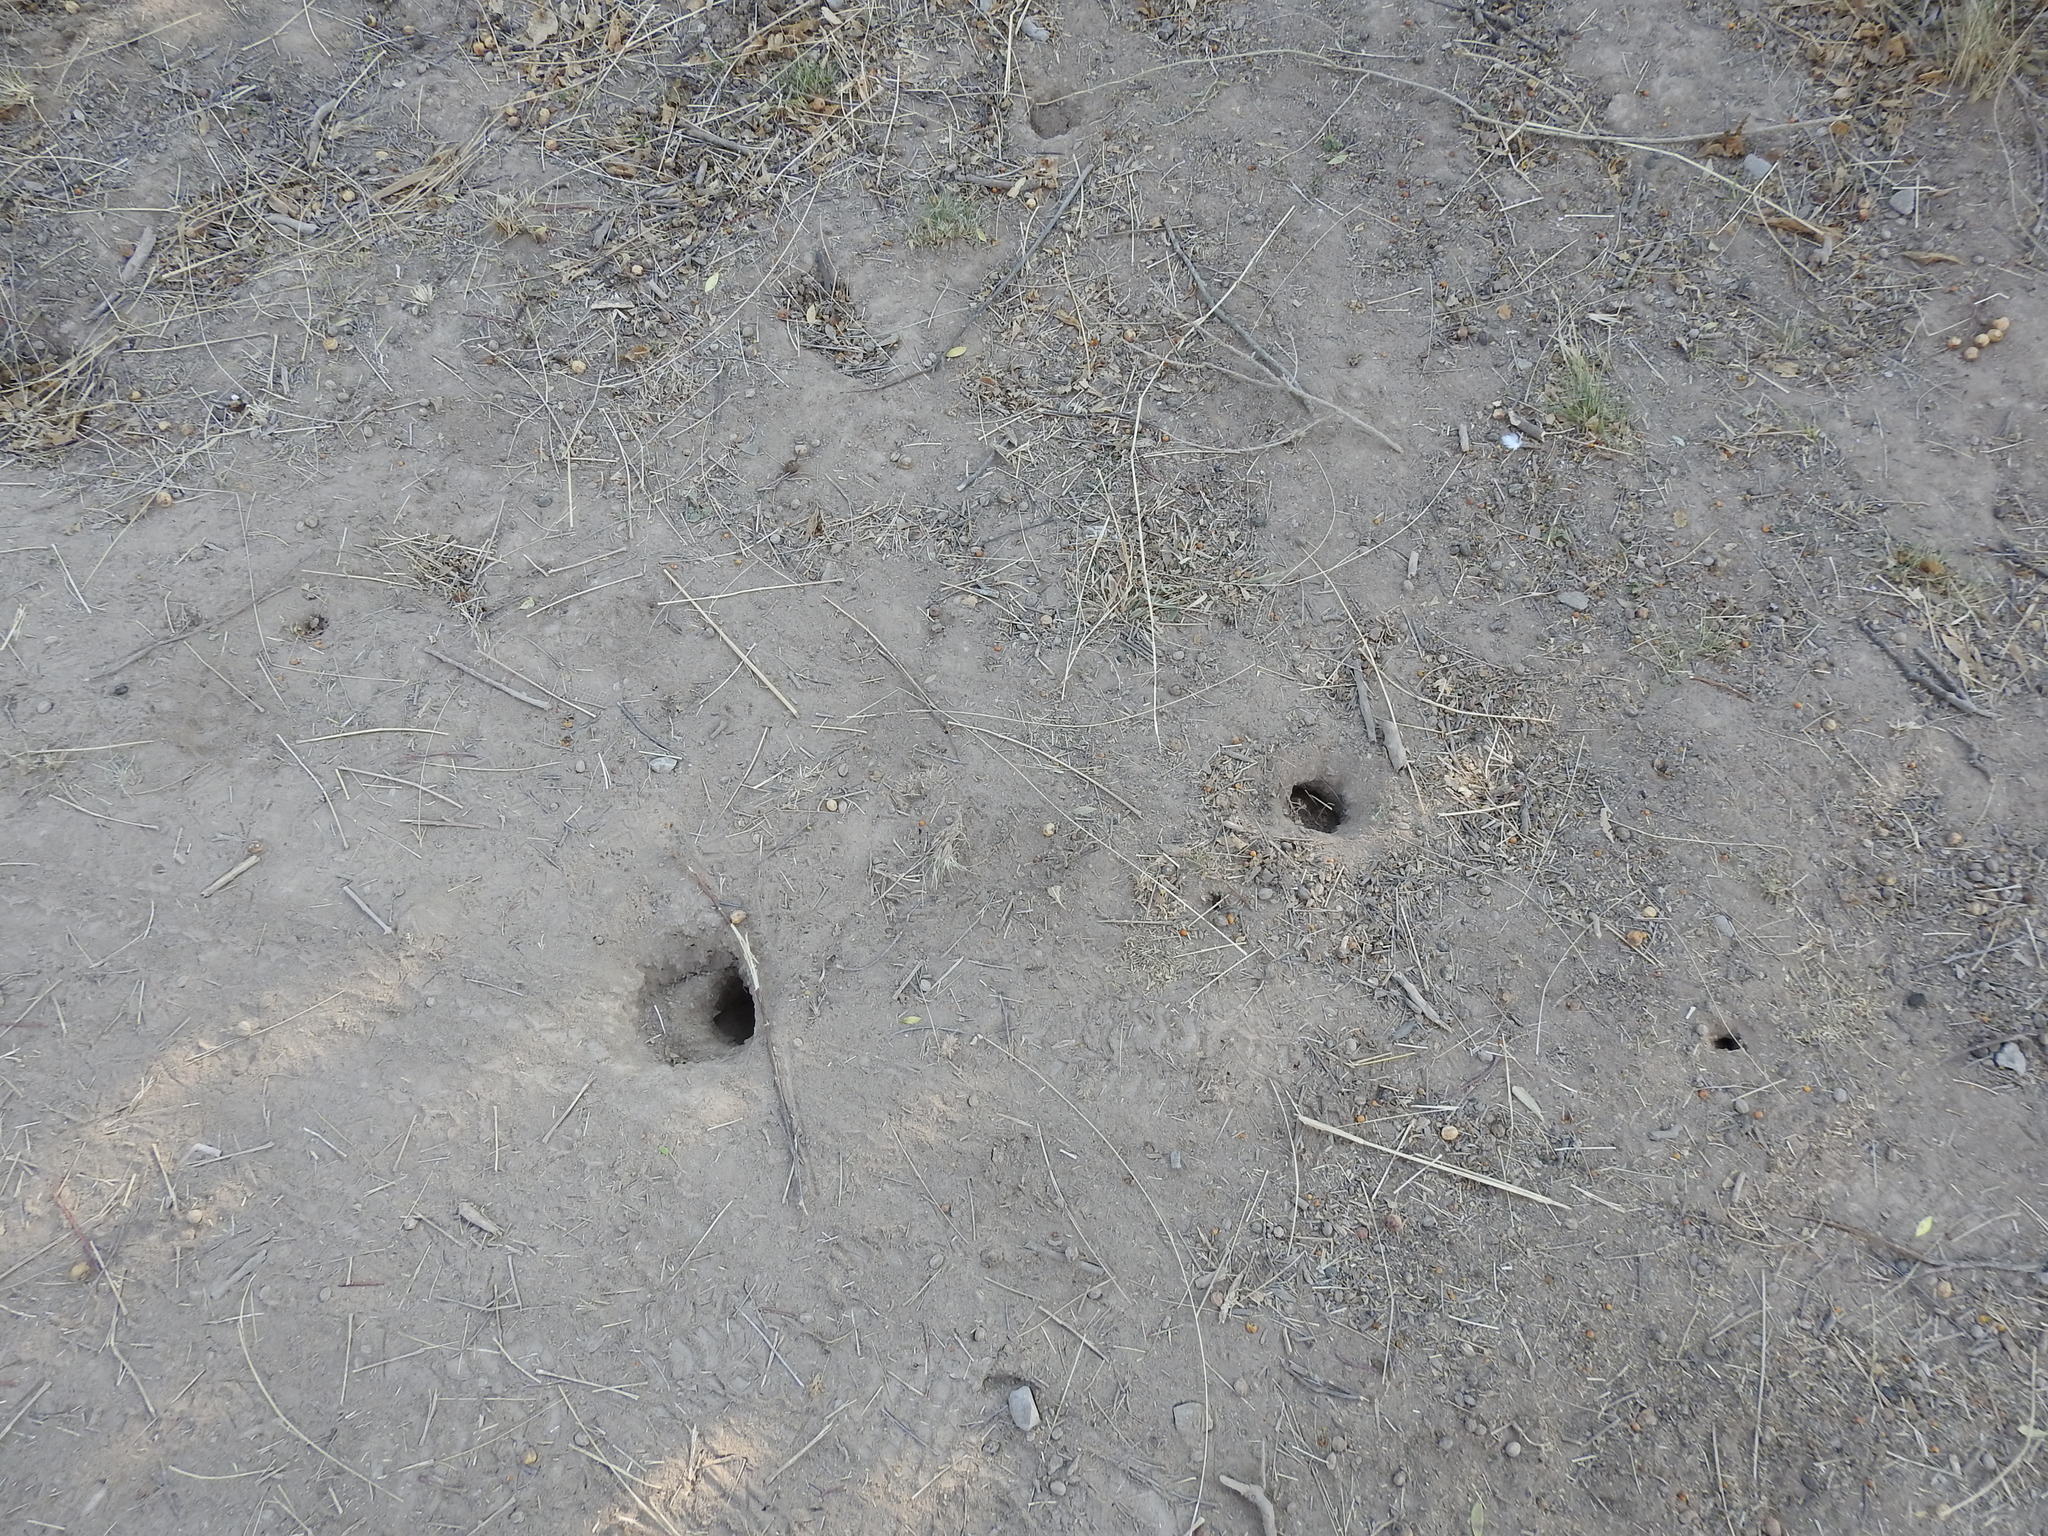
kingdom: Animalia
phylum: Chordata
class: Mammalia
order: Rodentia
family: Ctenomyidae
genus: Ctenomys
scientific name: Ctenomys rosendopascuali
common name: Rosendo pascual’s tuco-tuco
